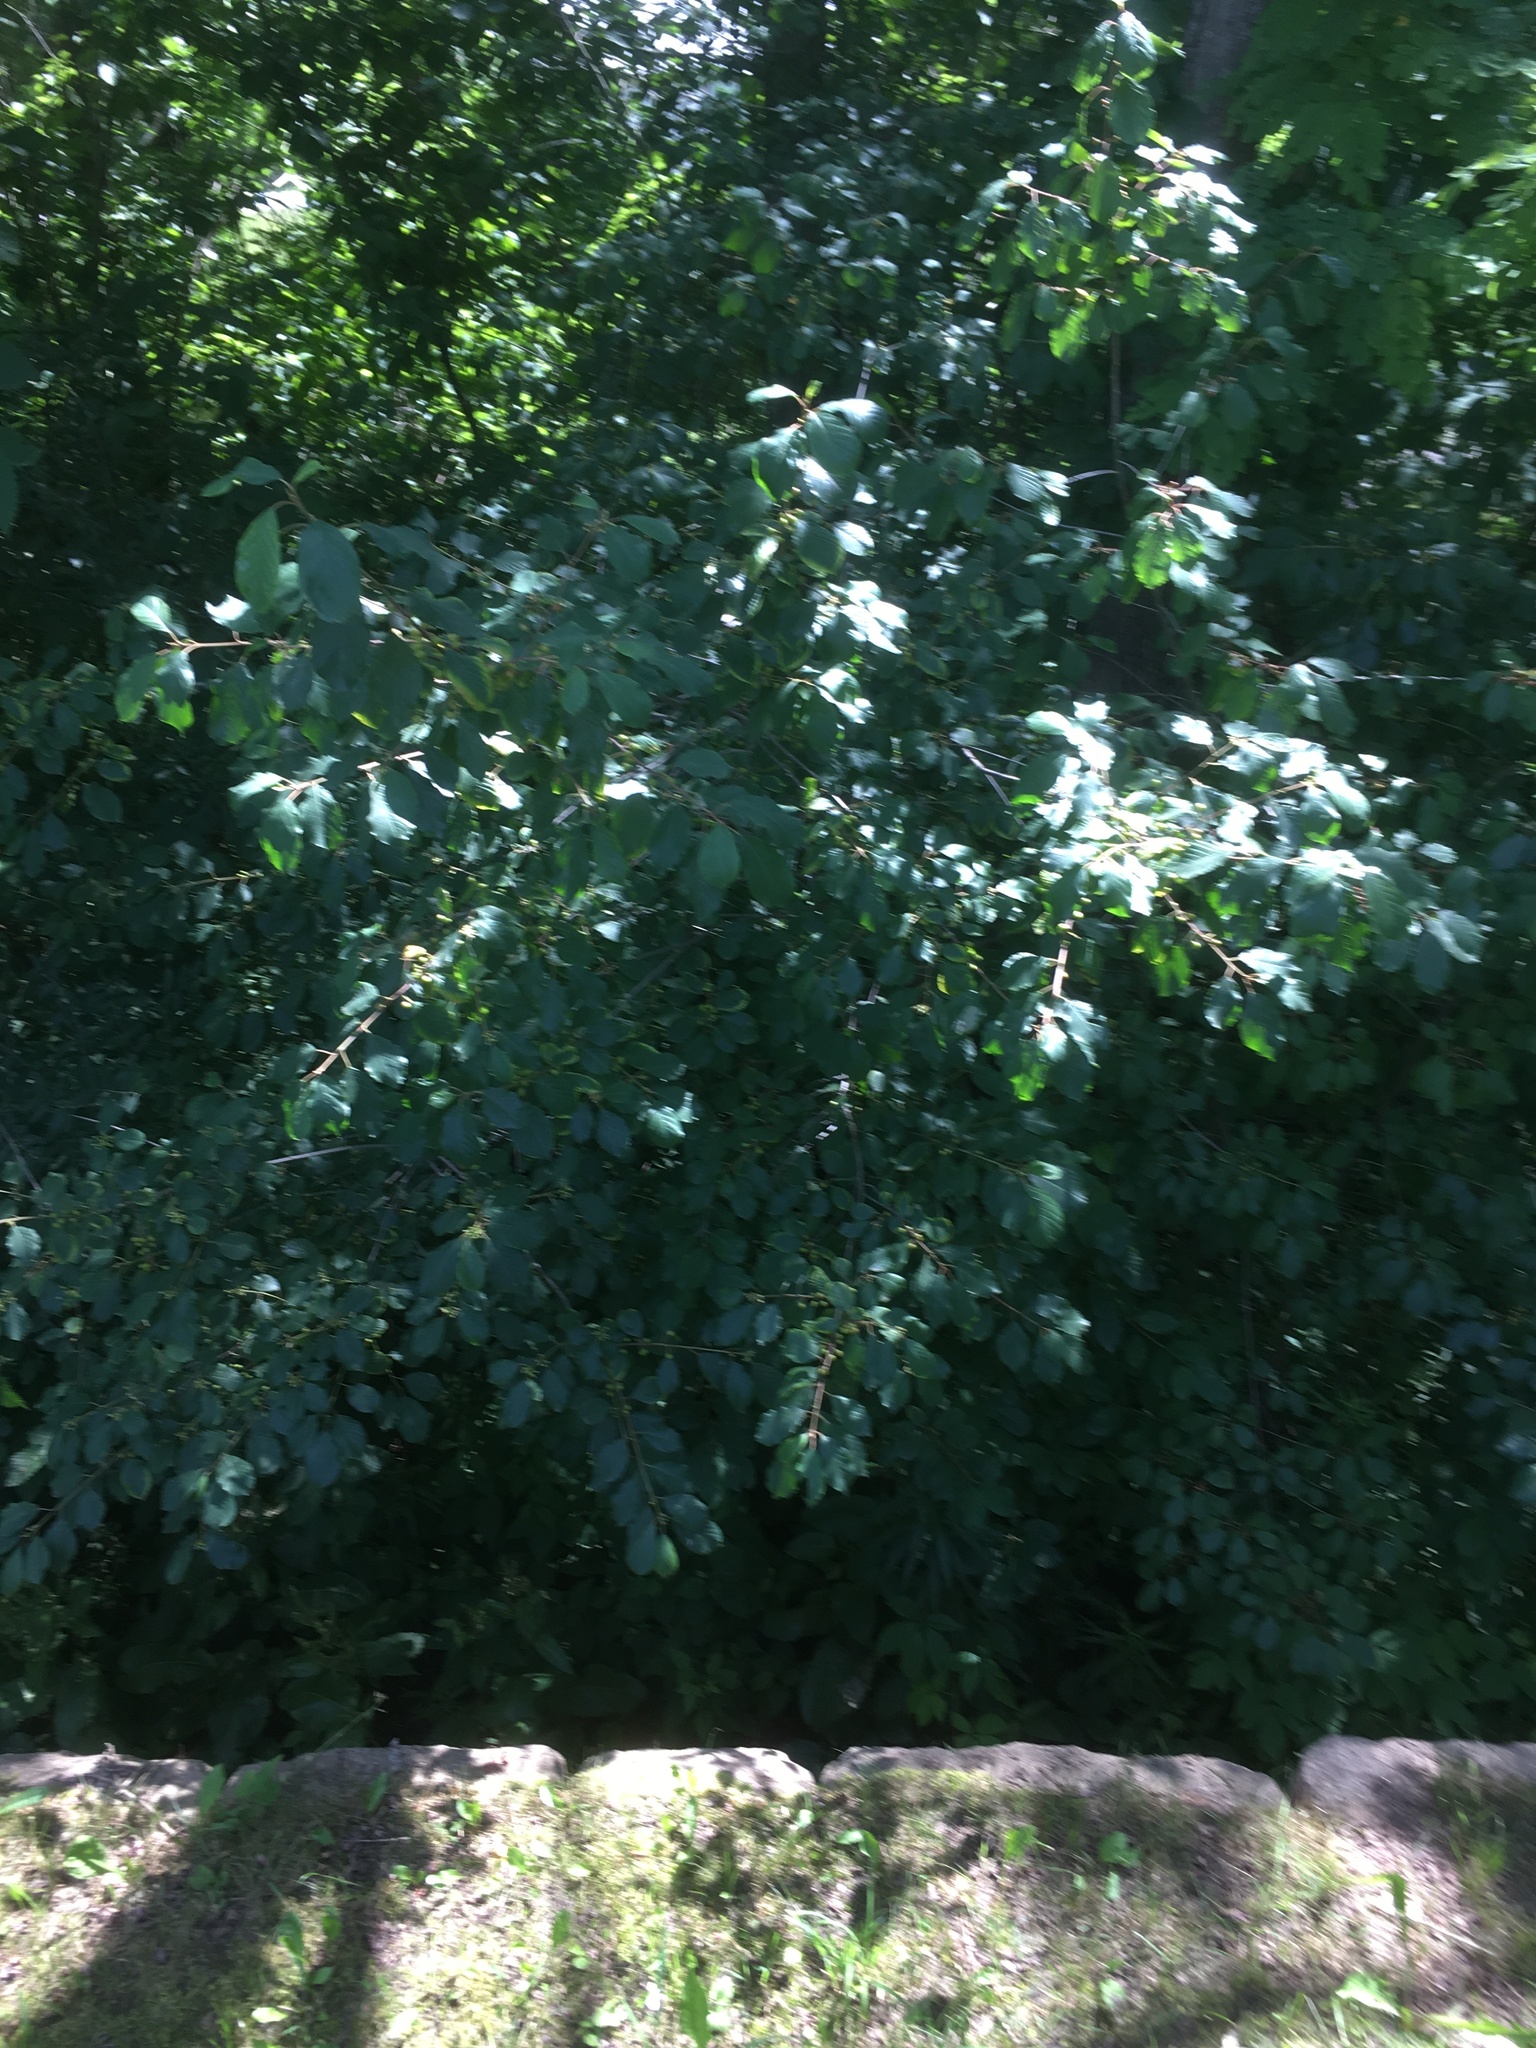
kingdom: Plantae
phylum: Tracheophyta
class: Magnoliopsida
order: Rosales
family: Rhamnaceae
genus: Frangula
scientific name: Frangula alnus
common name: Alder buckthorn
